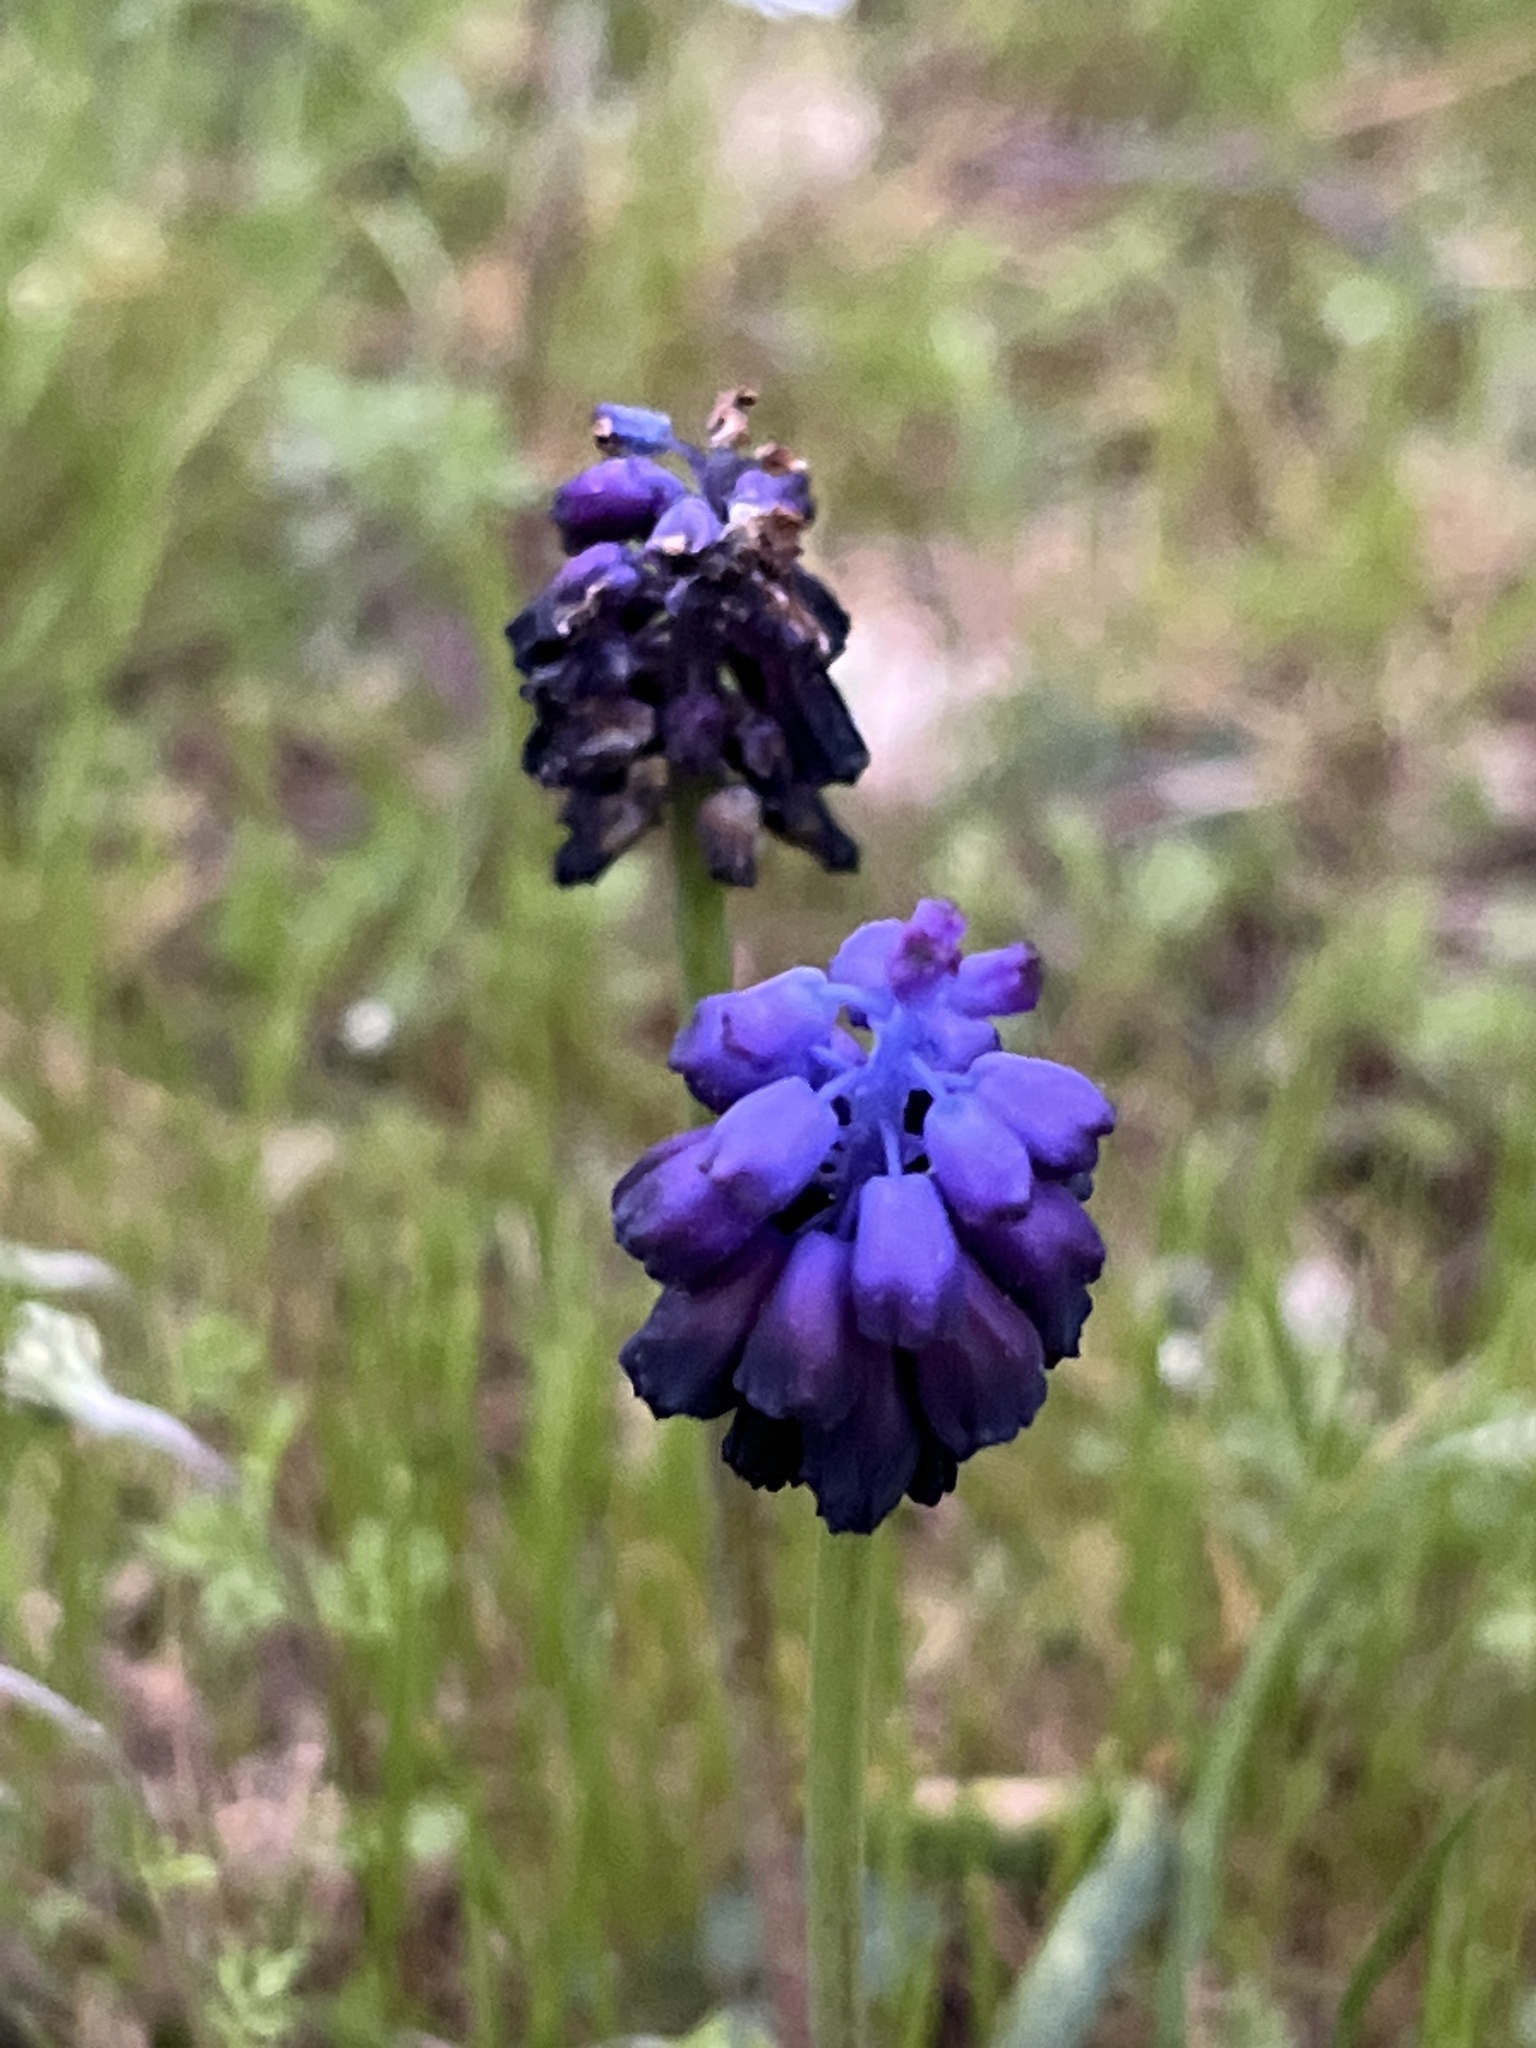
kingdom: Plantae
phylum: Tracheophyta
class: Liliopsida
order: Asparagales
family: Asparagaceae
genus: Muscari
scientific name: Muscari commutatum
